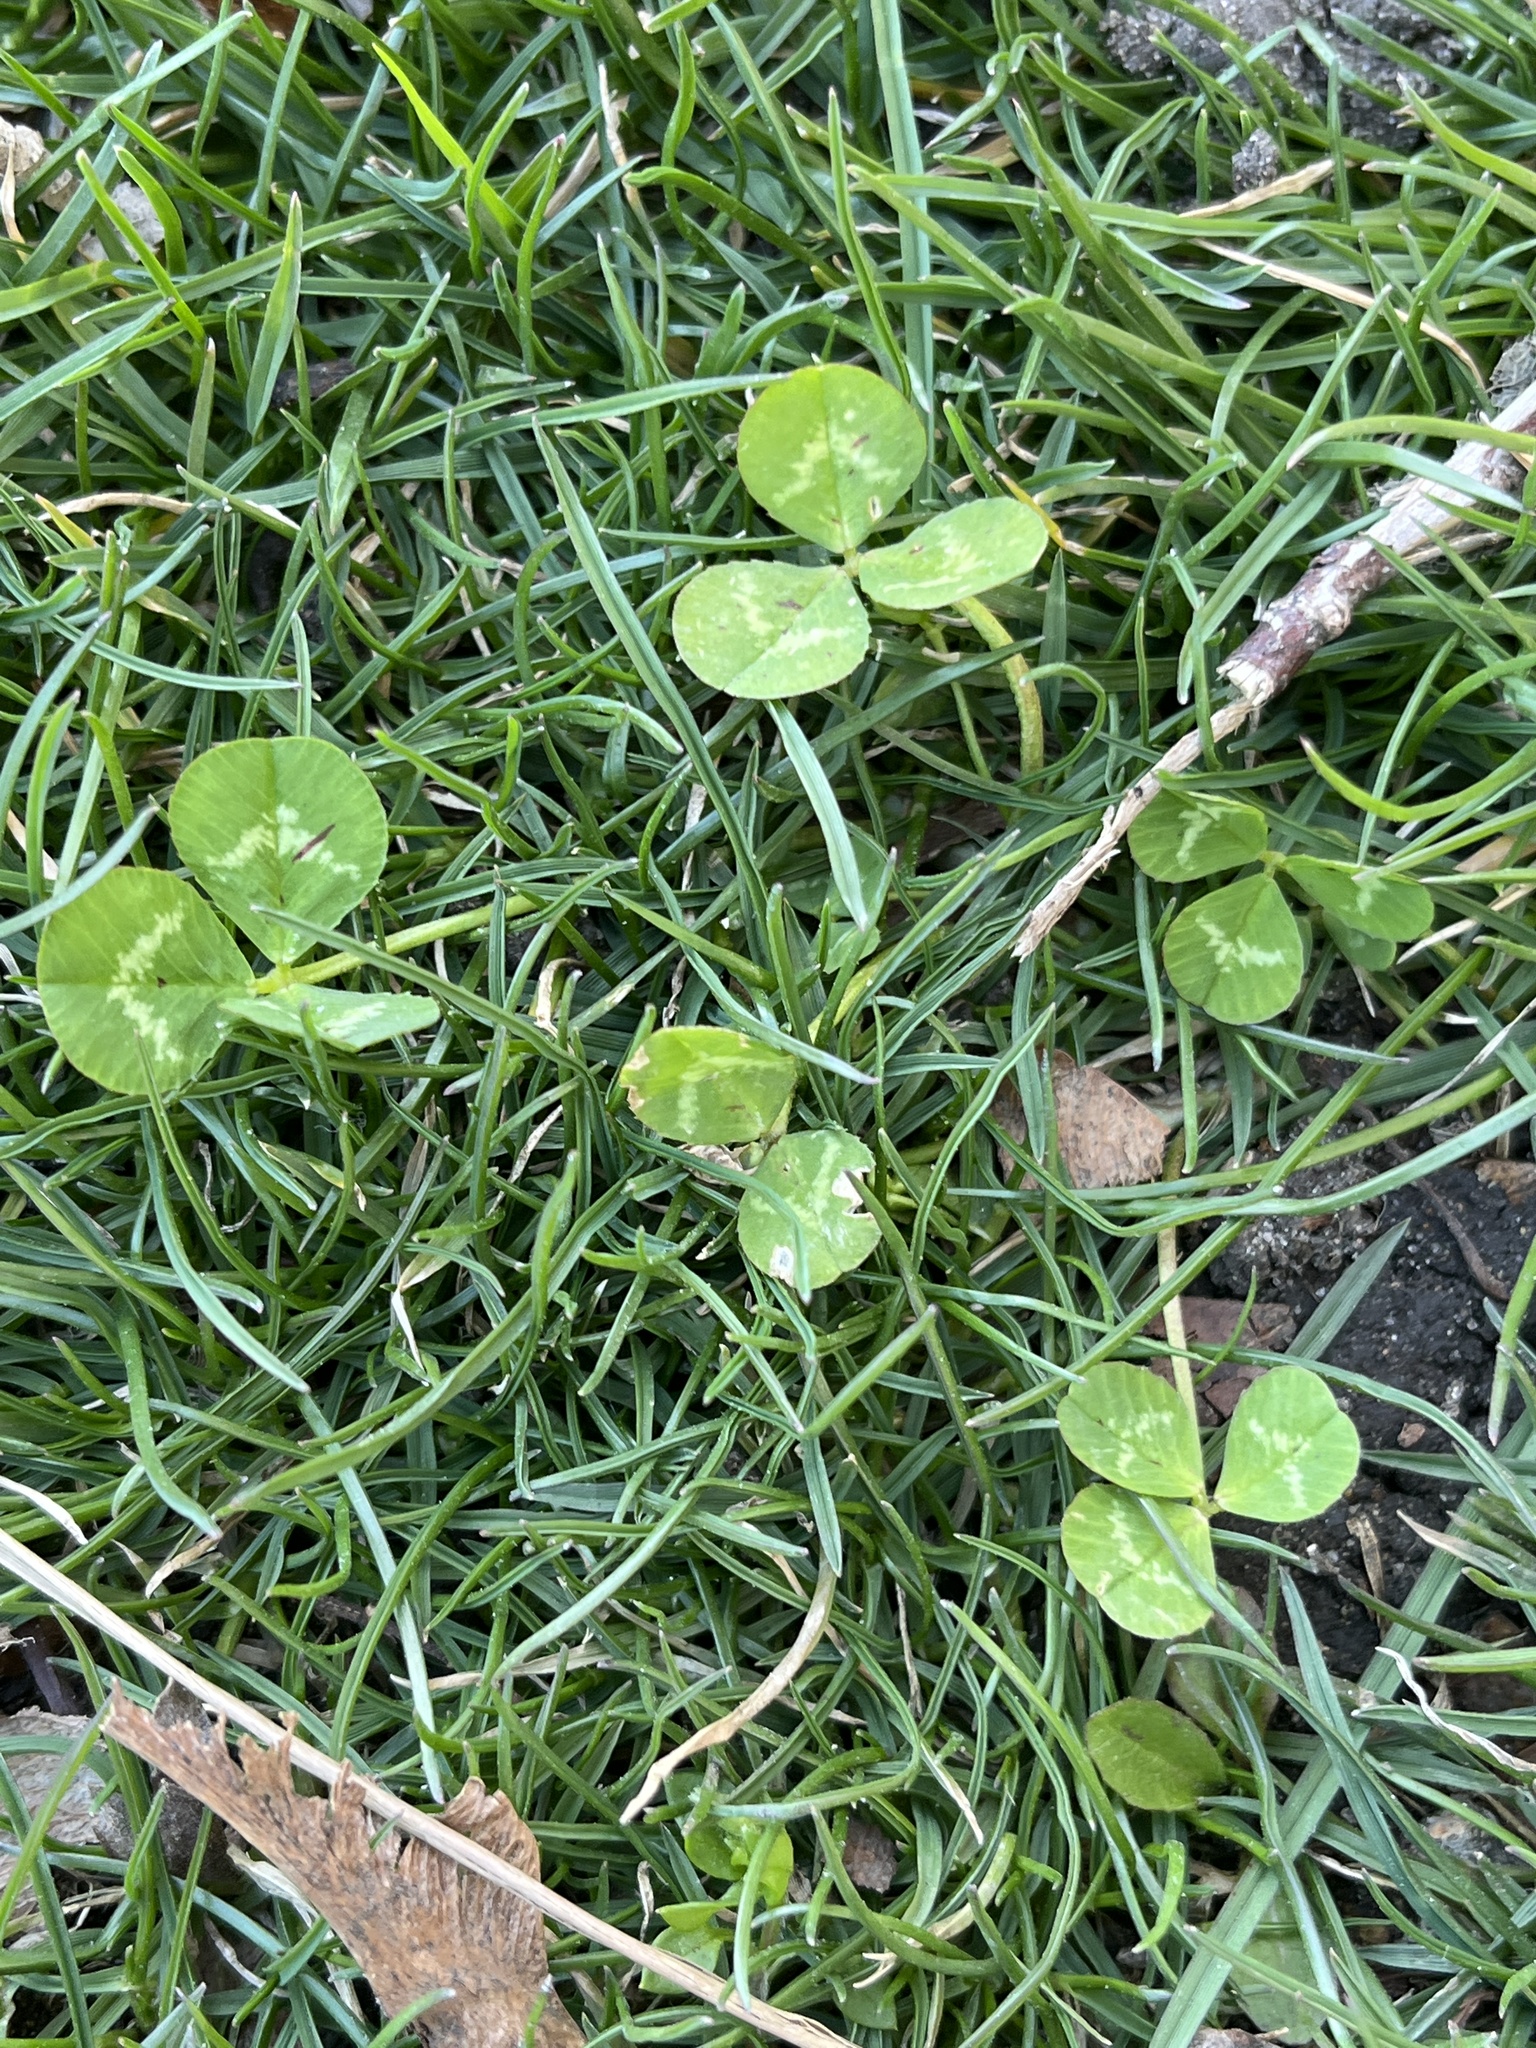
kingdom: Plantae
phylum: Tracheophyta
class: Magnoliopsida
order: Fabales
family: Fabaceae
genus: Trifolium
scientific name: Trifolium repens
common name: White clover
